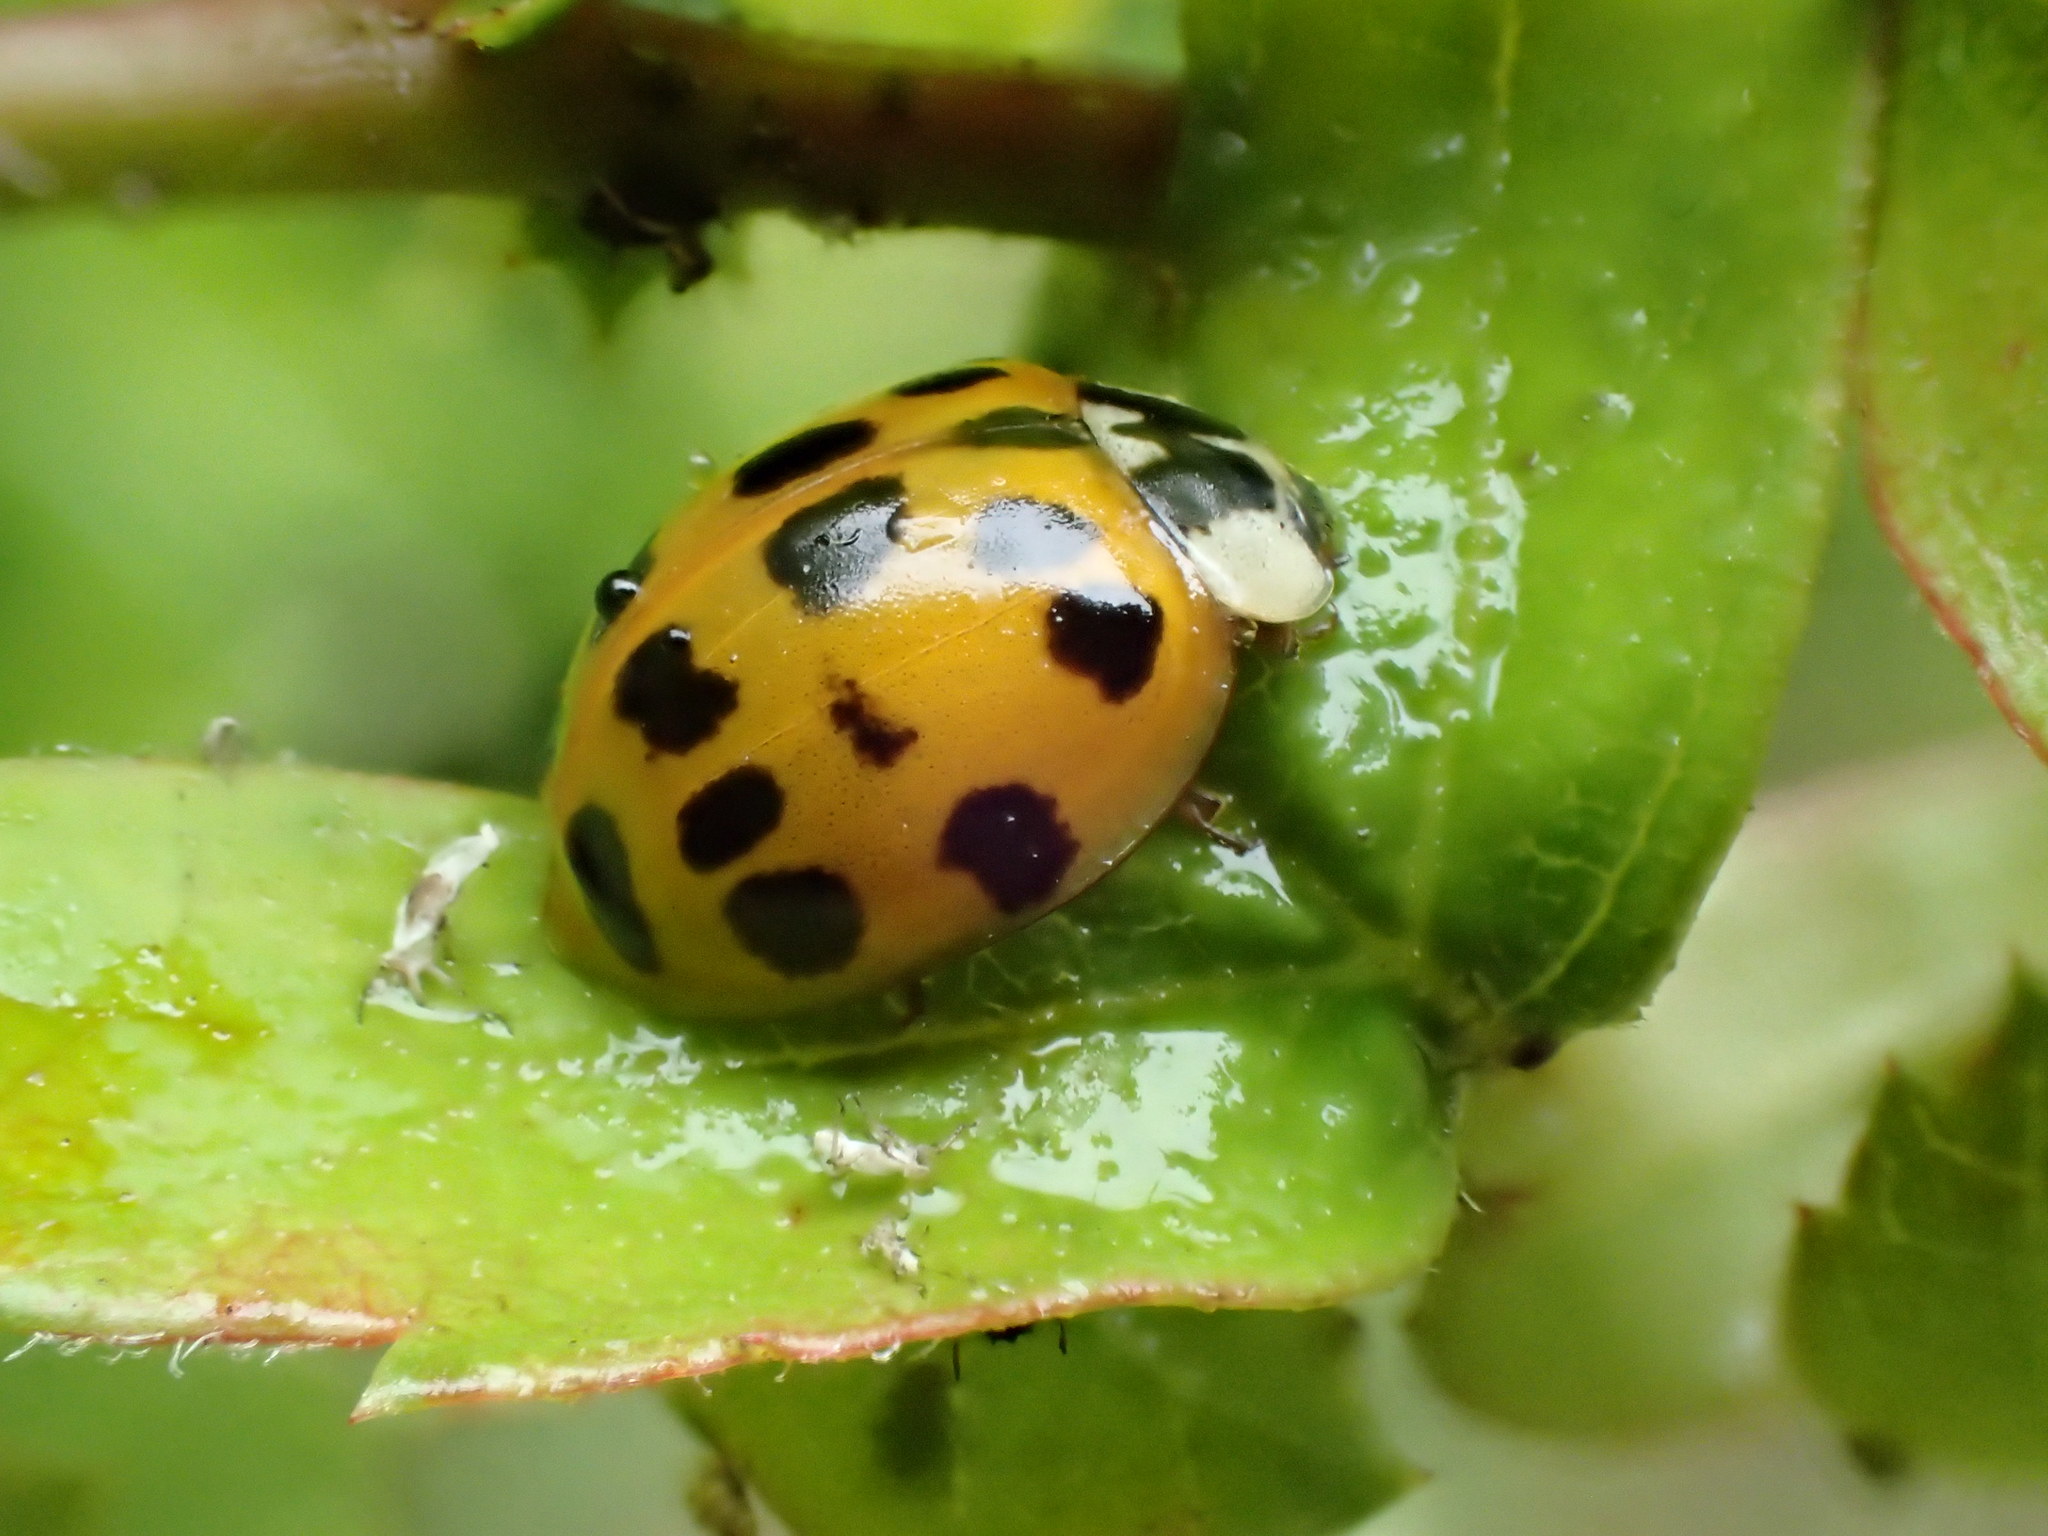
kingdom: Animalia
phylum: Arthropoda
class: Insecta
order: Coleoptera
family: Coccinellidae
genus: Harmonia
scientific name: Harmonia axyridis
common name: Harlequin ladybird
